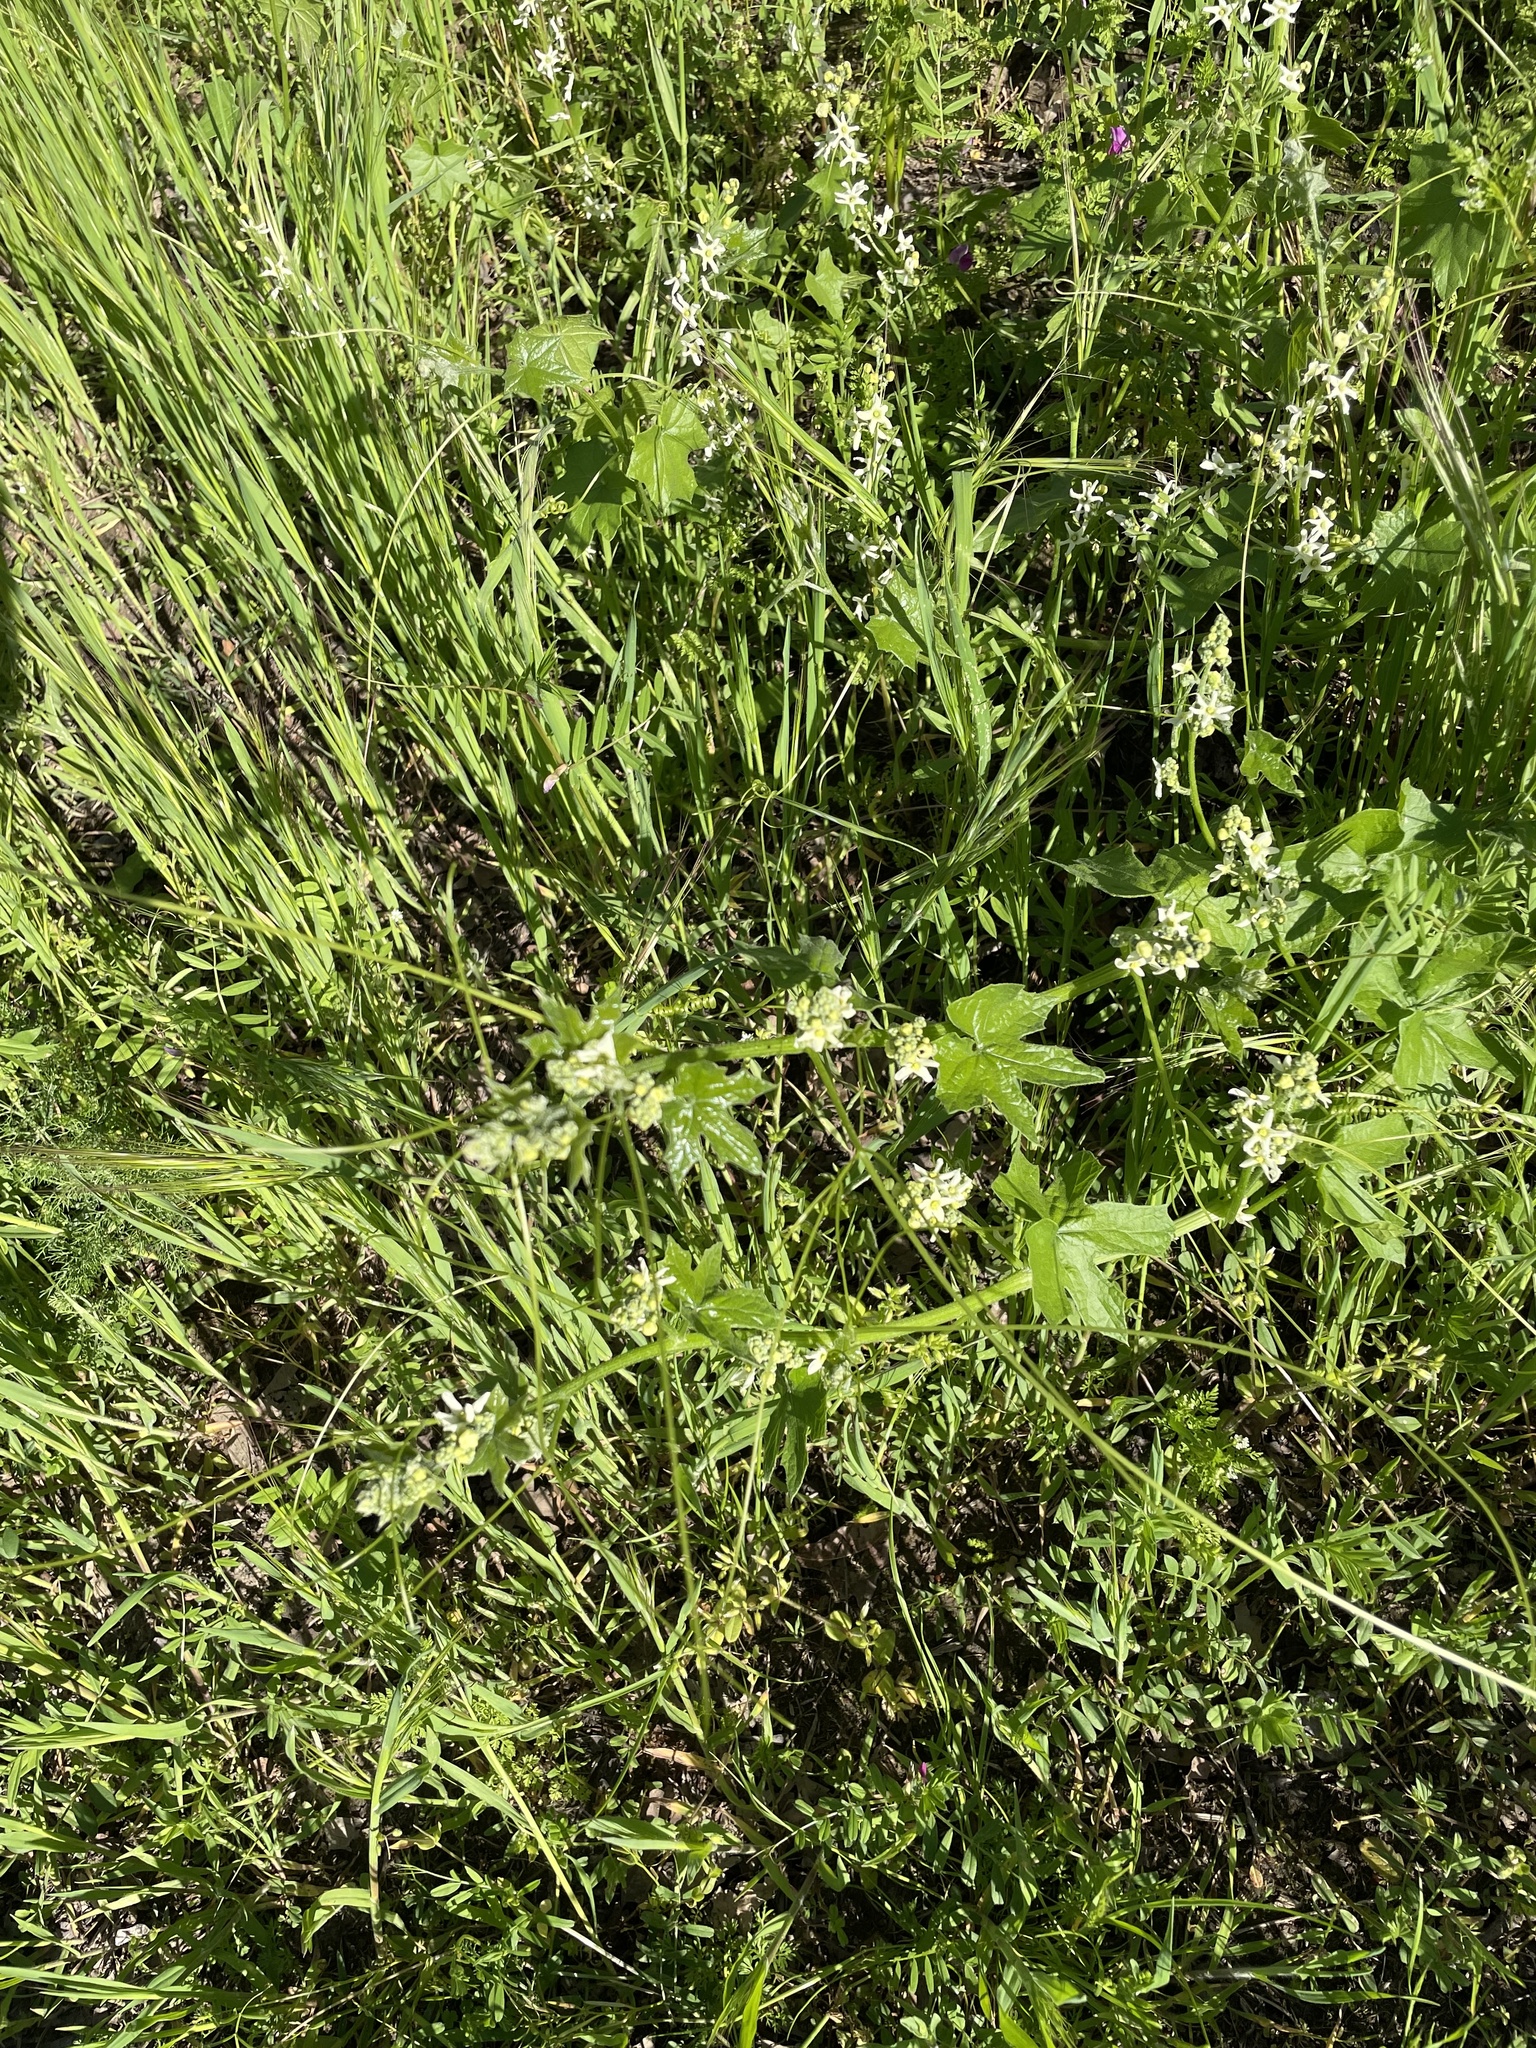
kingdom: Plantae
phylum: Tracheophyta
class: Magnoliopsida
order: Cucurbitales
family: Cucurbitaceae
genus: Marah
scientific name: Marah fabacea
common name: California manroot
